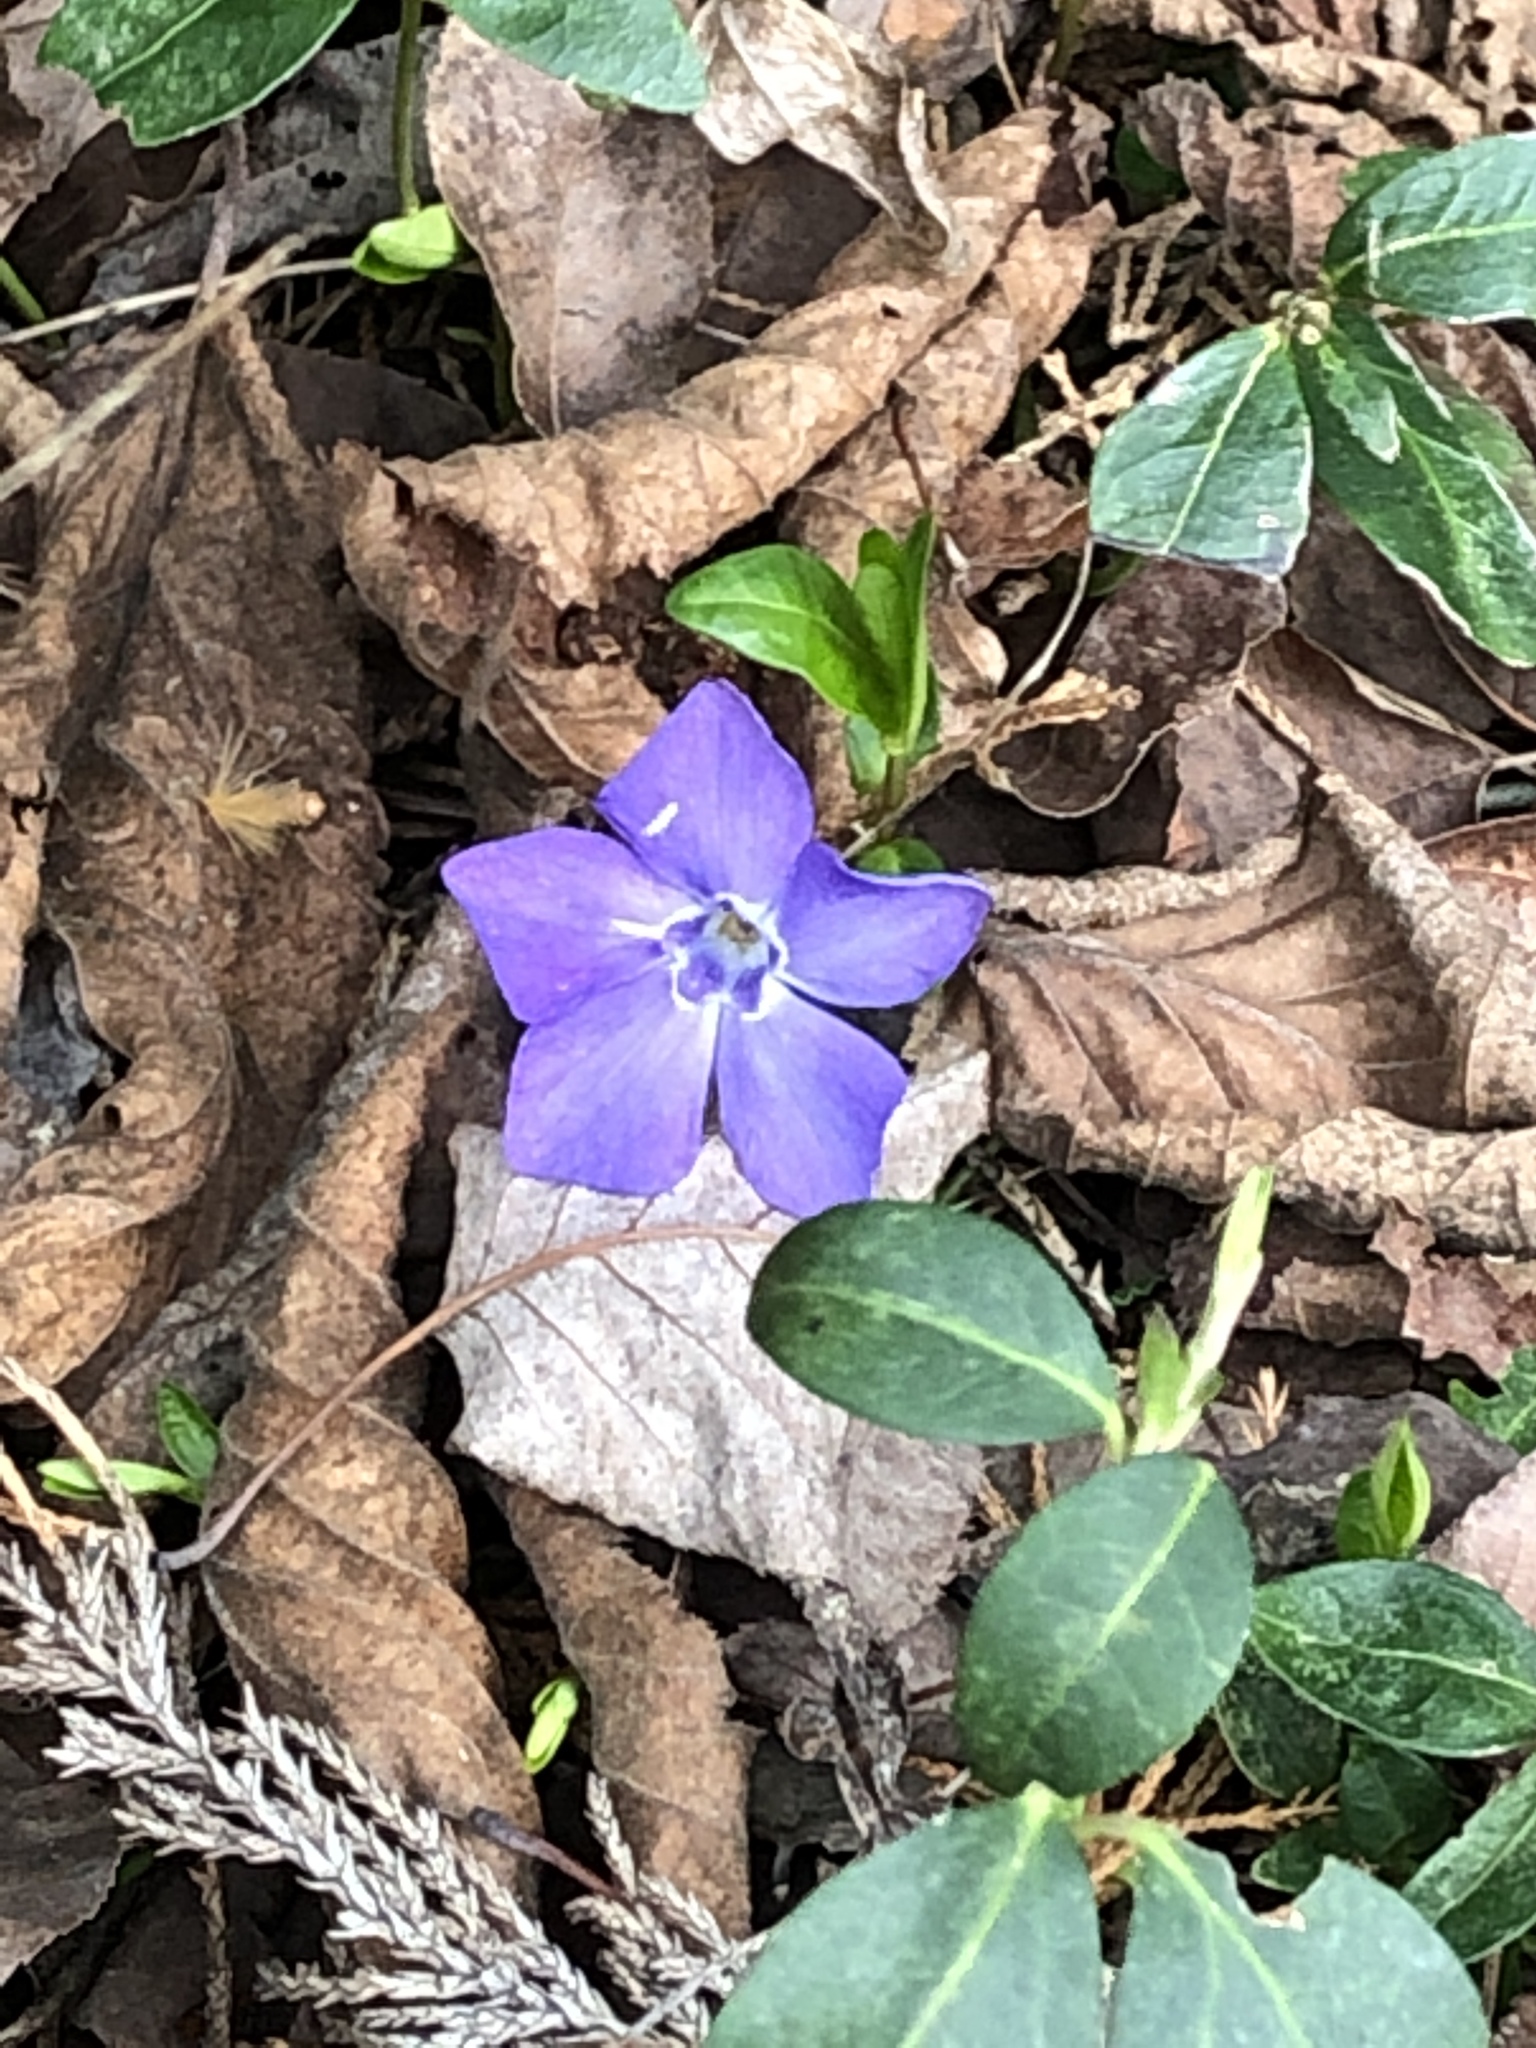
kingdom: Plantae
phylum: Tracheophyta
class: Magnoliopsida
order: Gentianales
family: Apocynaceae
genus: Vinca
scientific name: Vinca minor
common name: Lesser periwinkle
